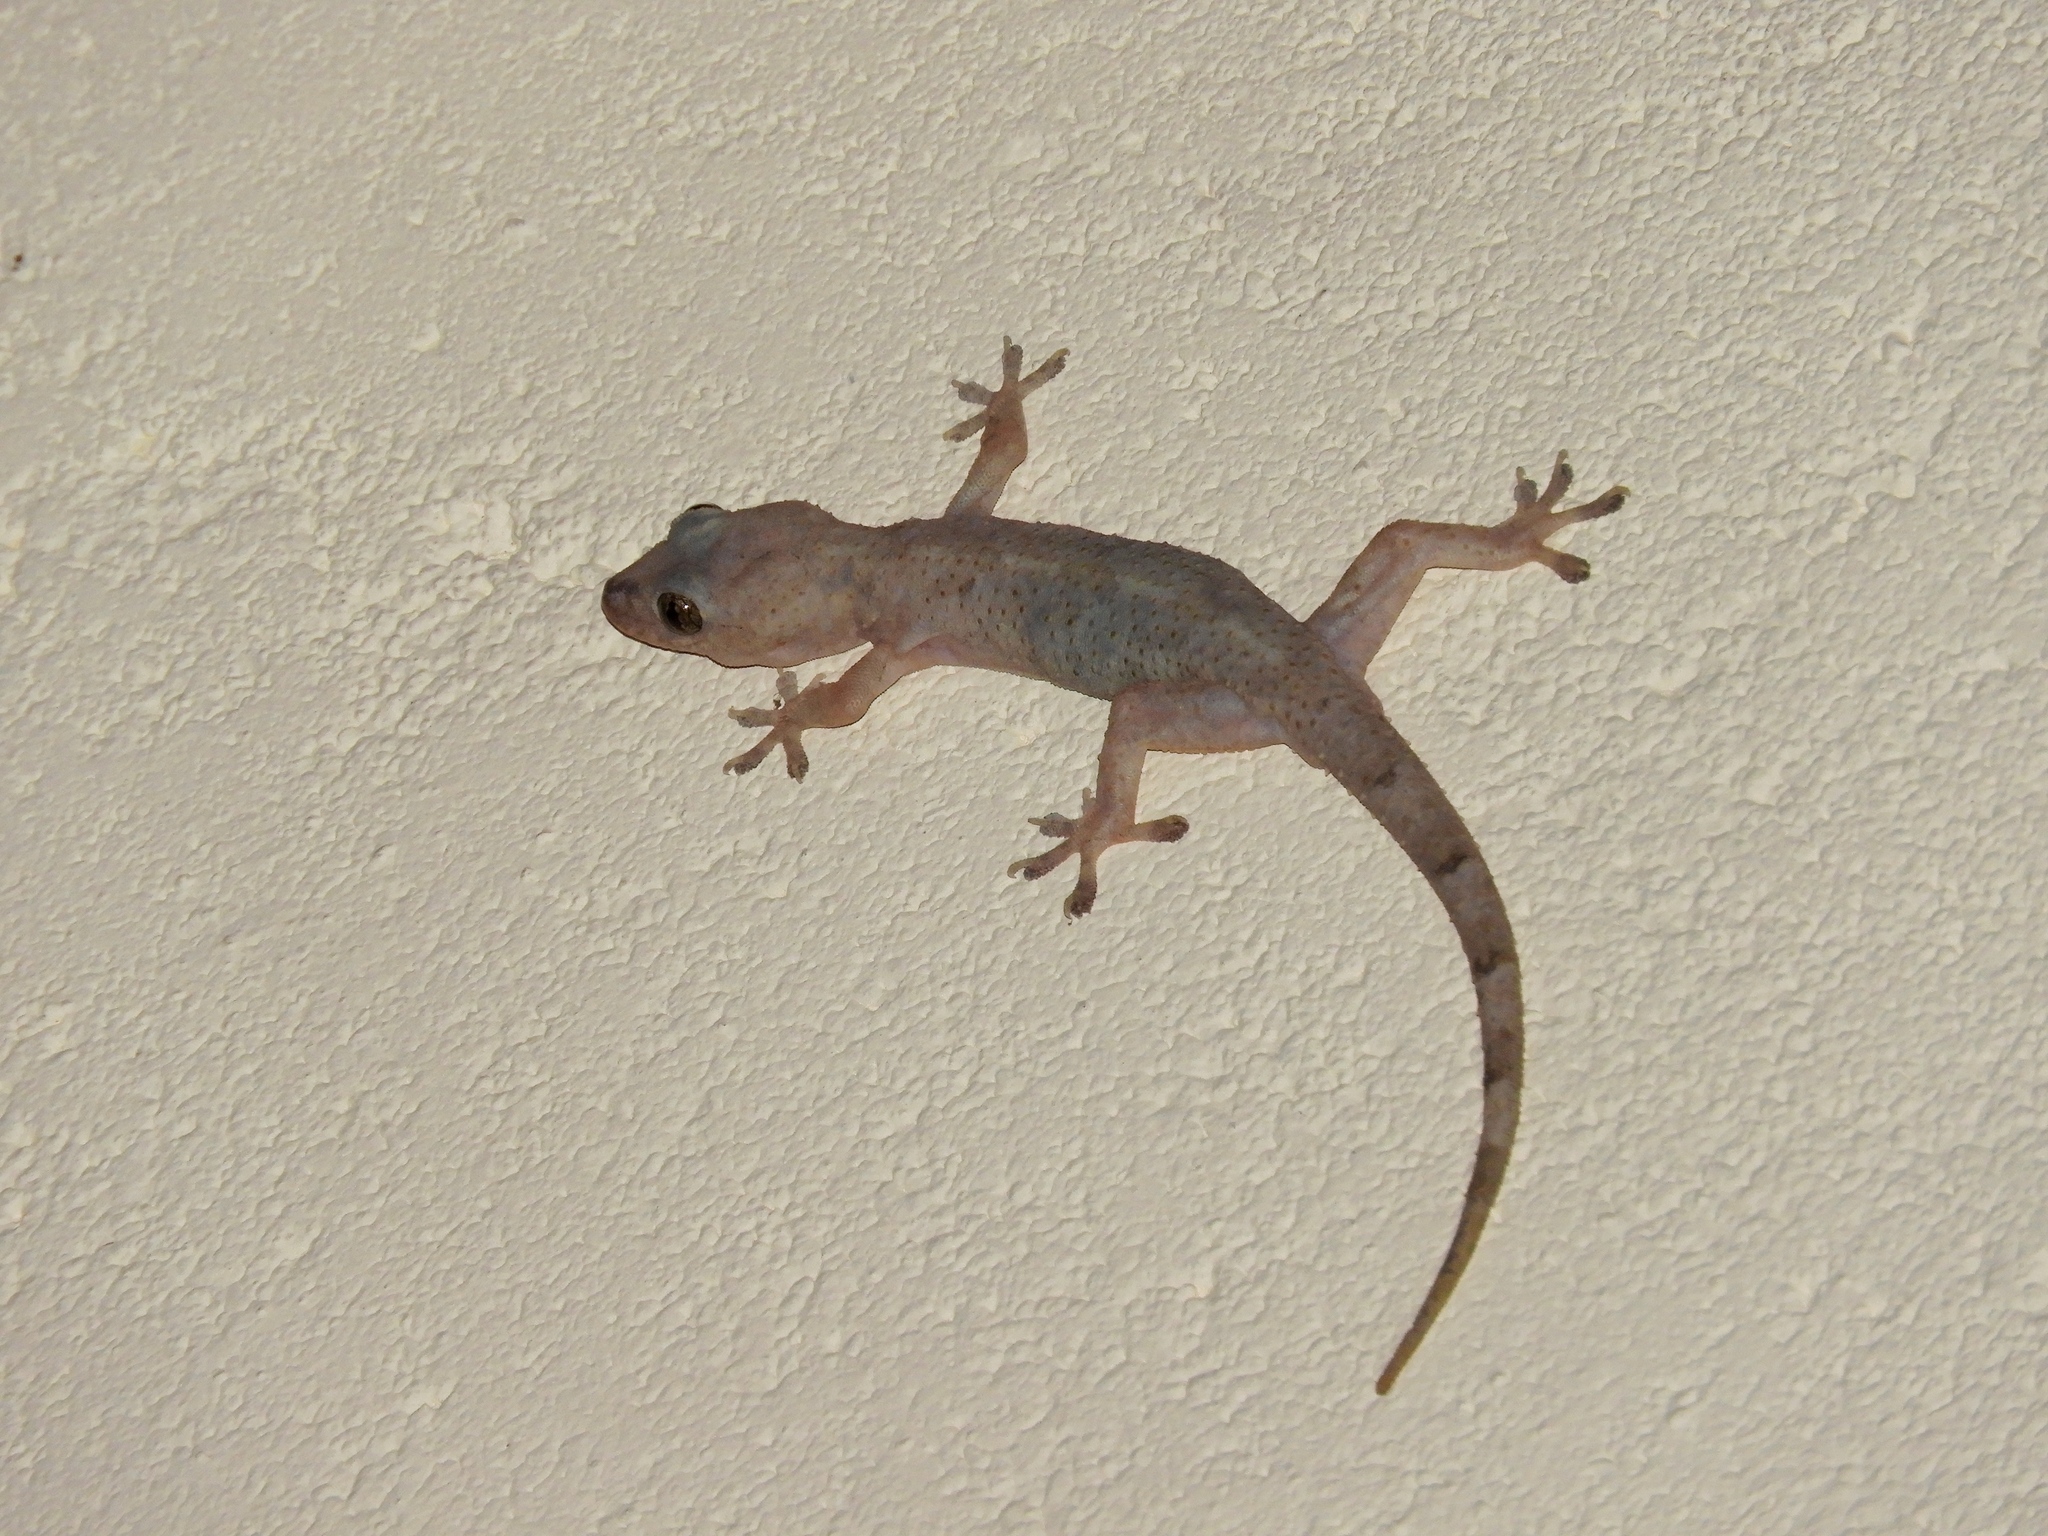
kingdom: Animalia
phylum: Chordata
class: Squamata
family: Gekkonidae
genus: Hemidactylus
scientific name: Hemidactylus mabouia
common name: House gecko
